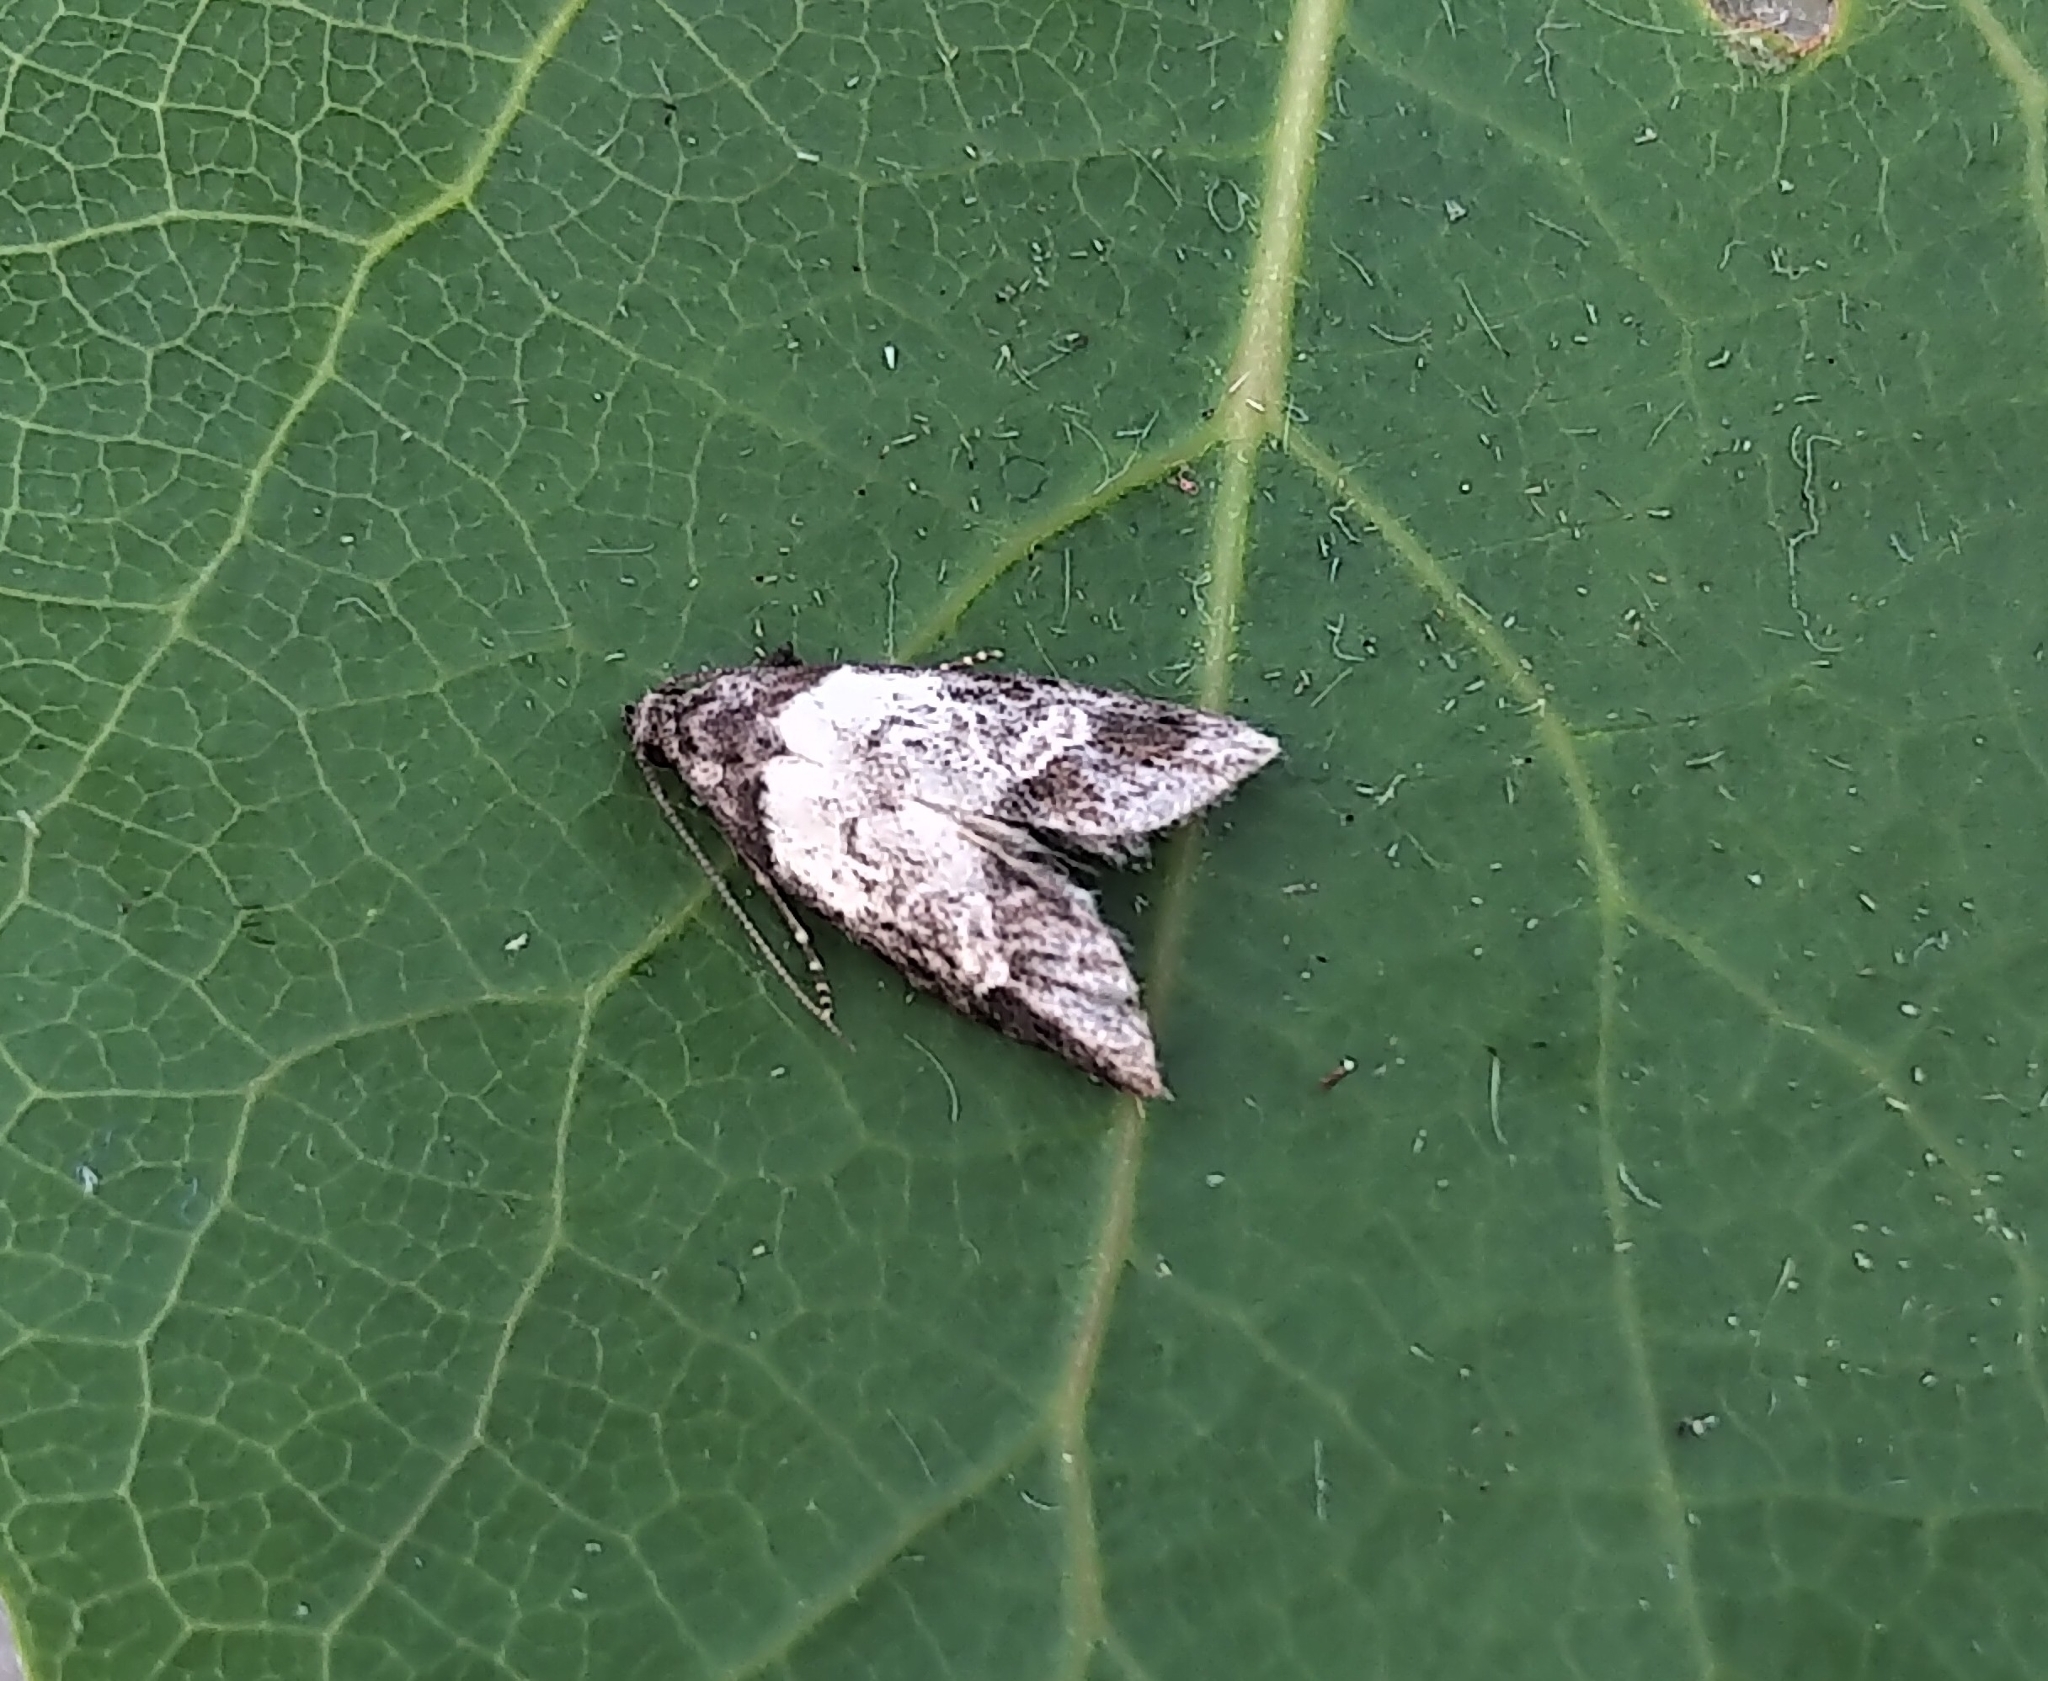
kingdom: Animalia
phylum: Arthropoda
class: Insecta
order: Lepidoptera
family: Carposinidae
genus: Bondia
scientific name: Bondia comonana
